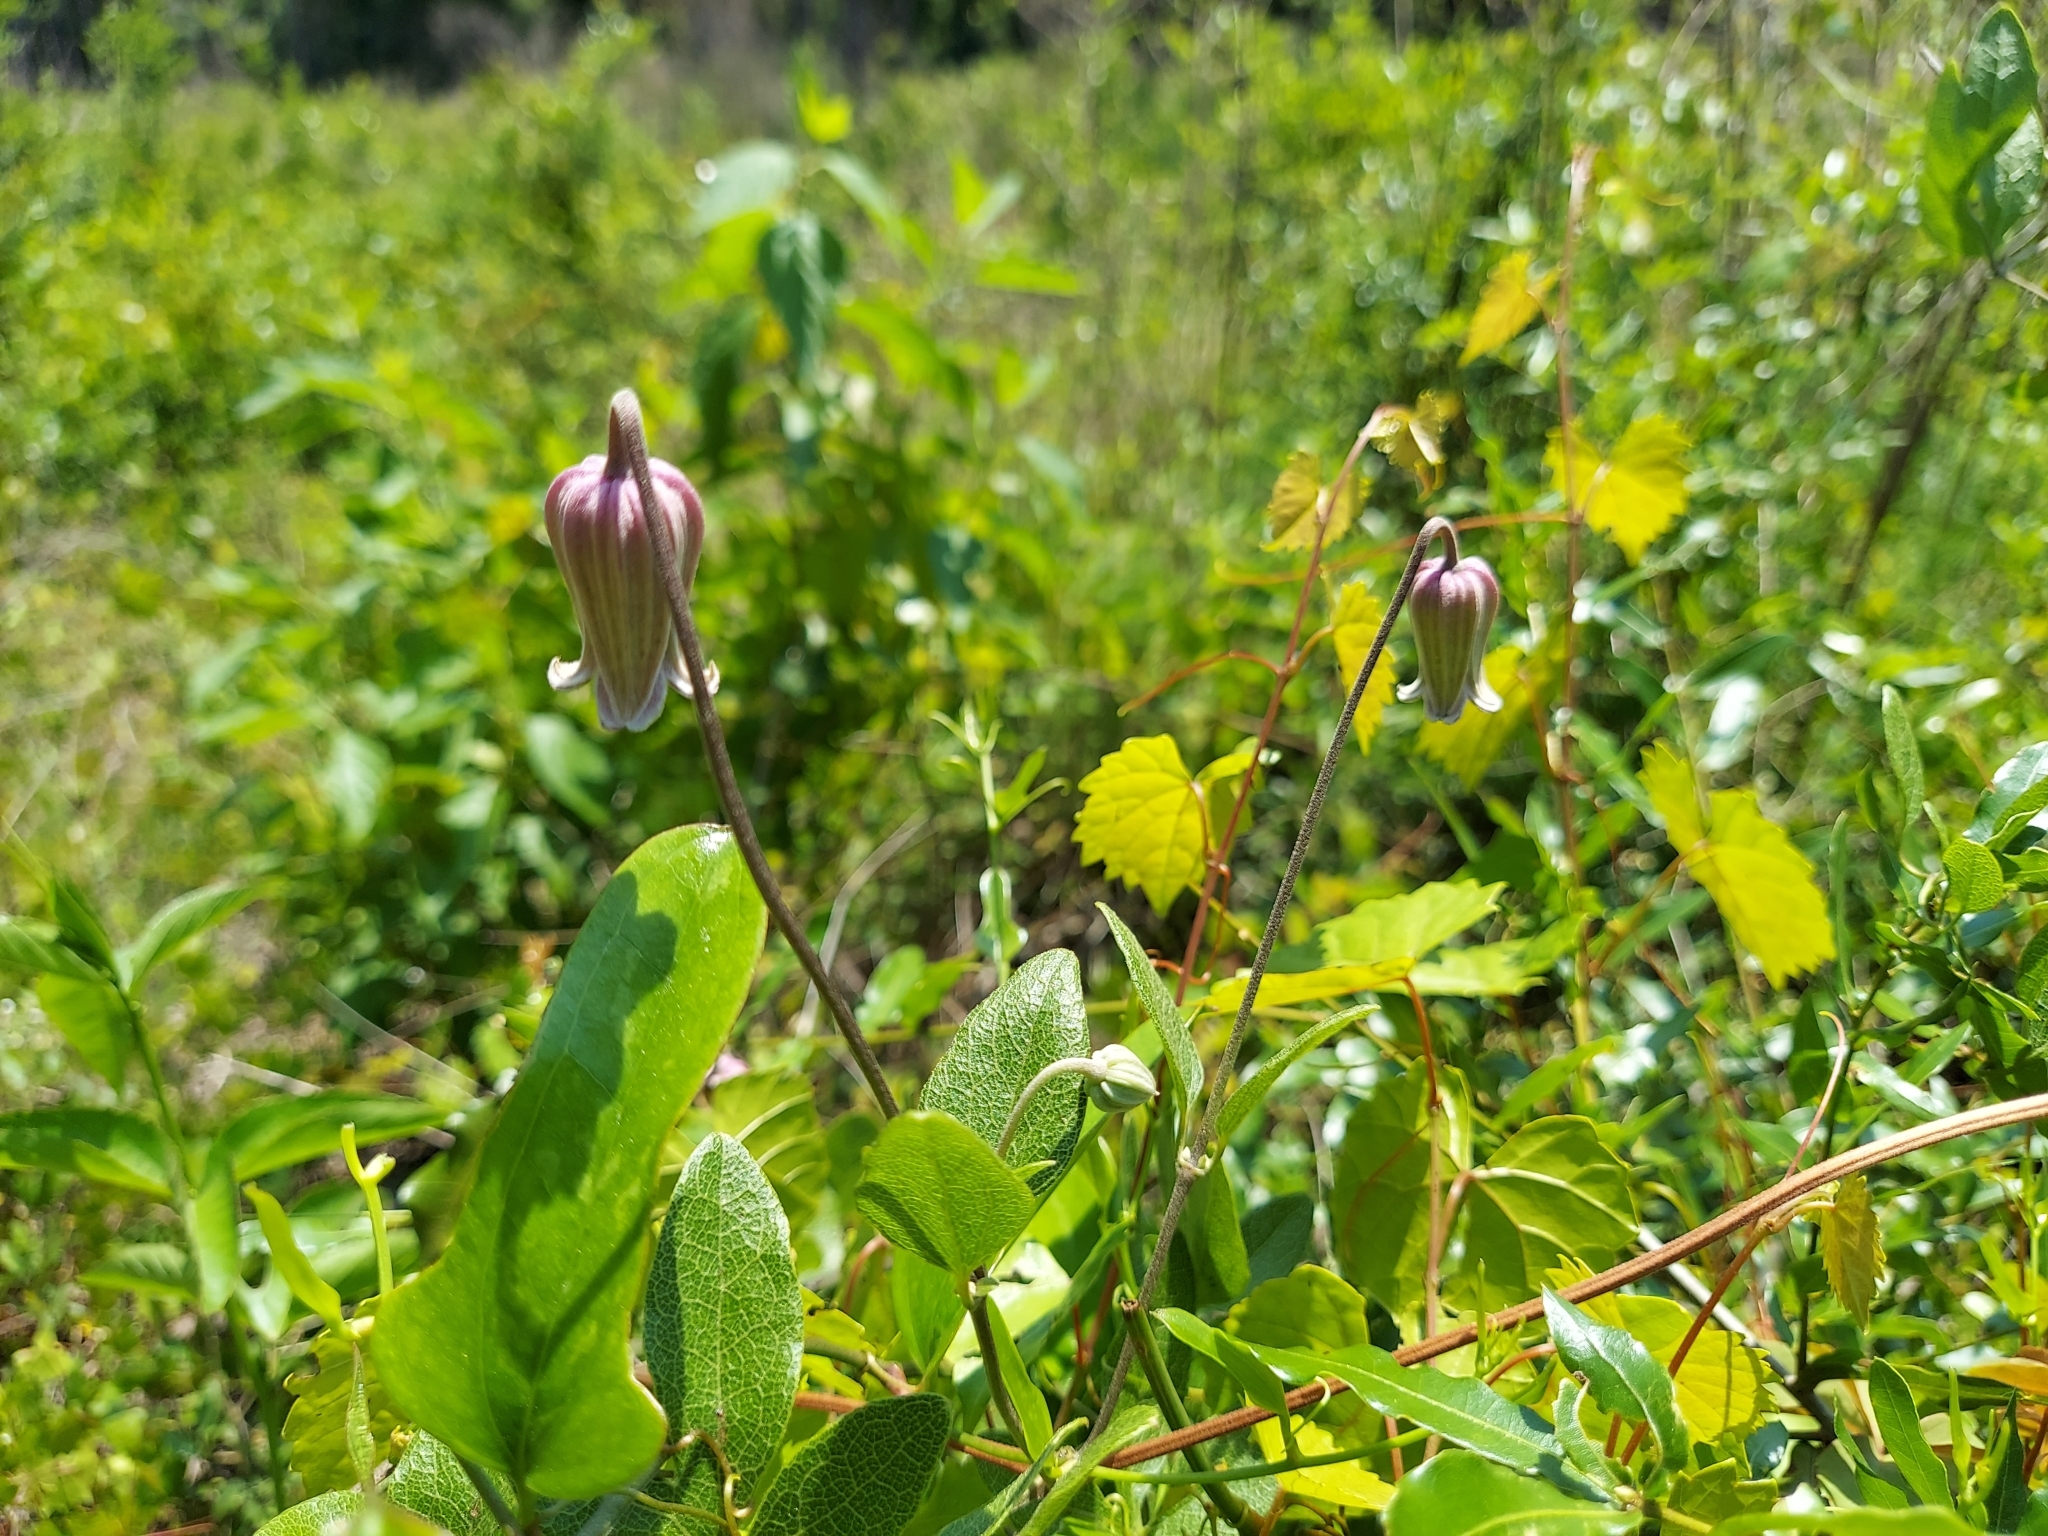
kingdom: Plantae
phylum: Tracheophyta
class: Magnoliopsida
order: Ranunculales
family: Ranunculaceae
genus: Clematis
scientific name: Clematis reticulata
